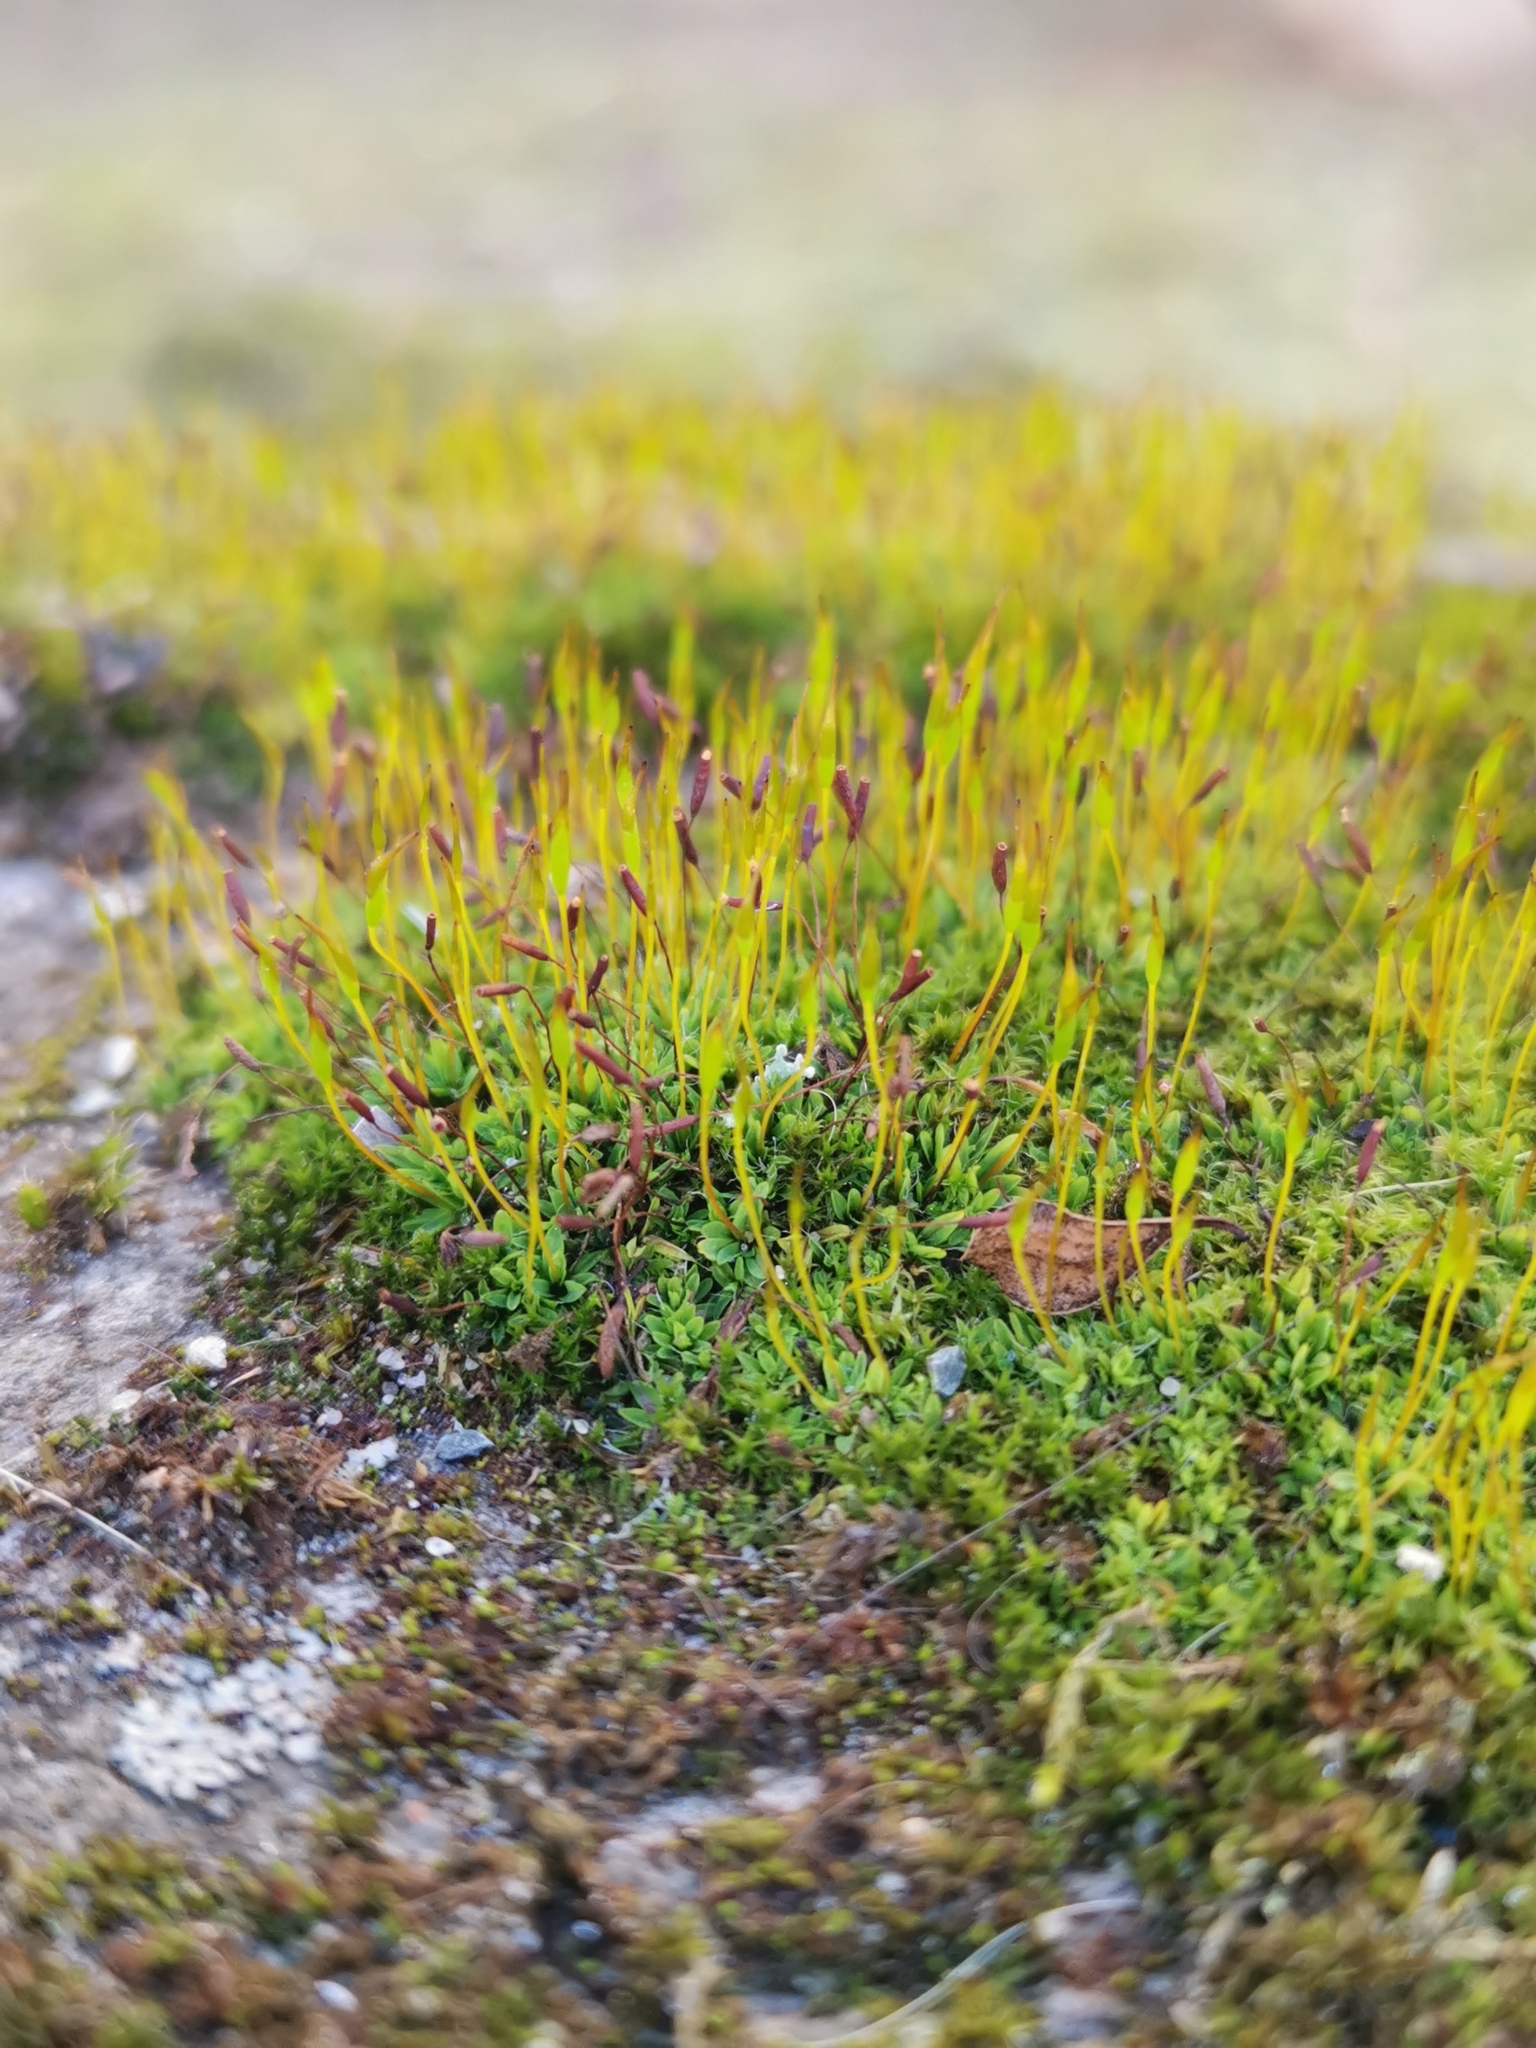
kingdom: Plantae
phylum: Bryophyta
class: Bryopsida
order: Pottiales
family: Pottiaceae
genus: Tortula
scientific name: Tortula muralis
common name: Wall screw-moss
